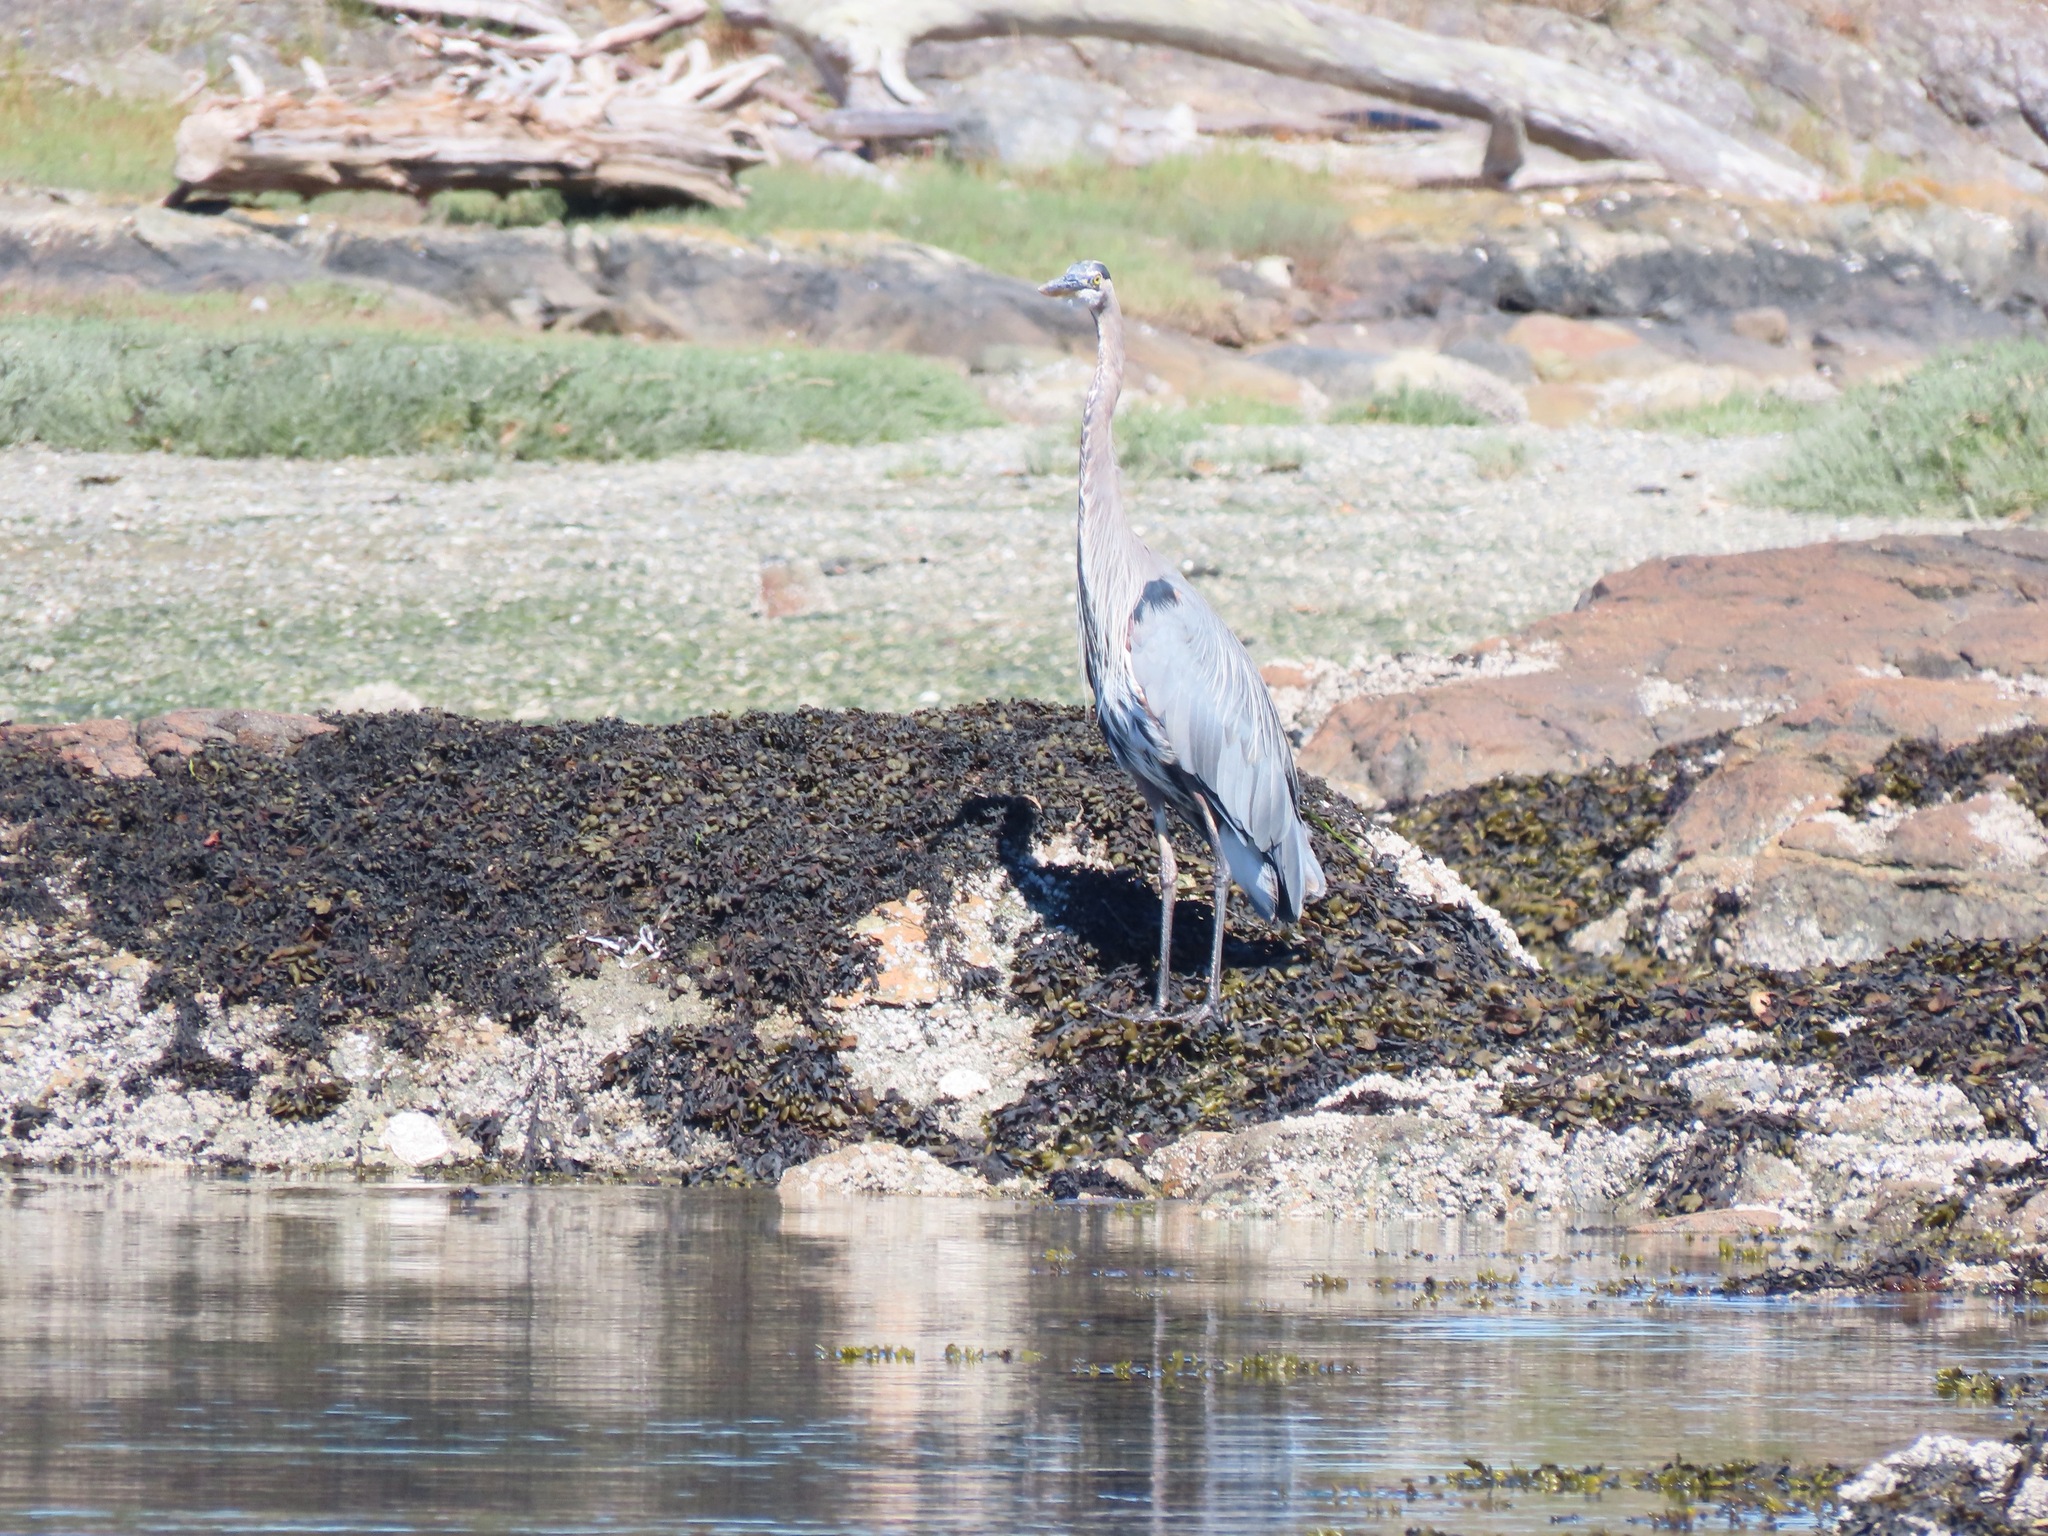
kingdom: Animalia
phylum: Chordata
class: Aves
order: Pelecaniformes
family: Ardeidae
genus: Ardea
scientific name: Ardea herodias
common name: Great blue heron
